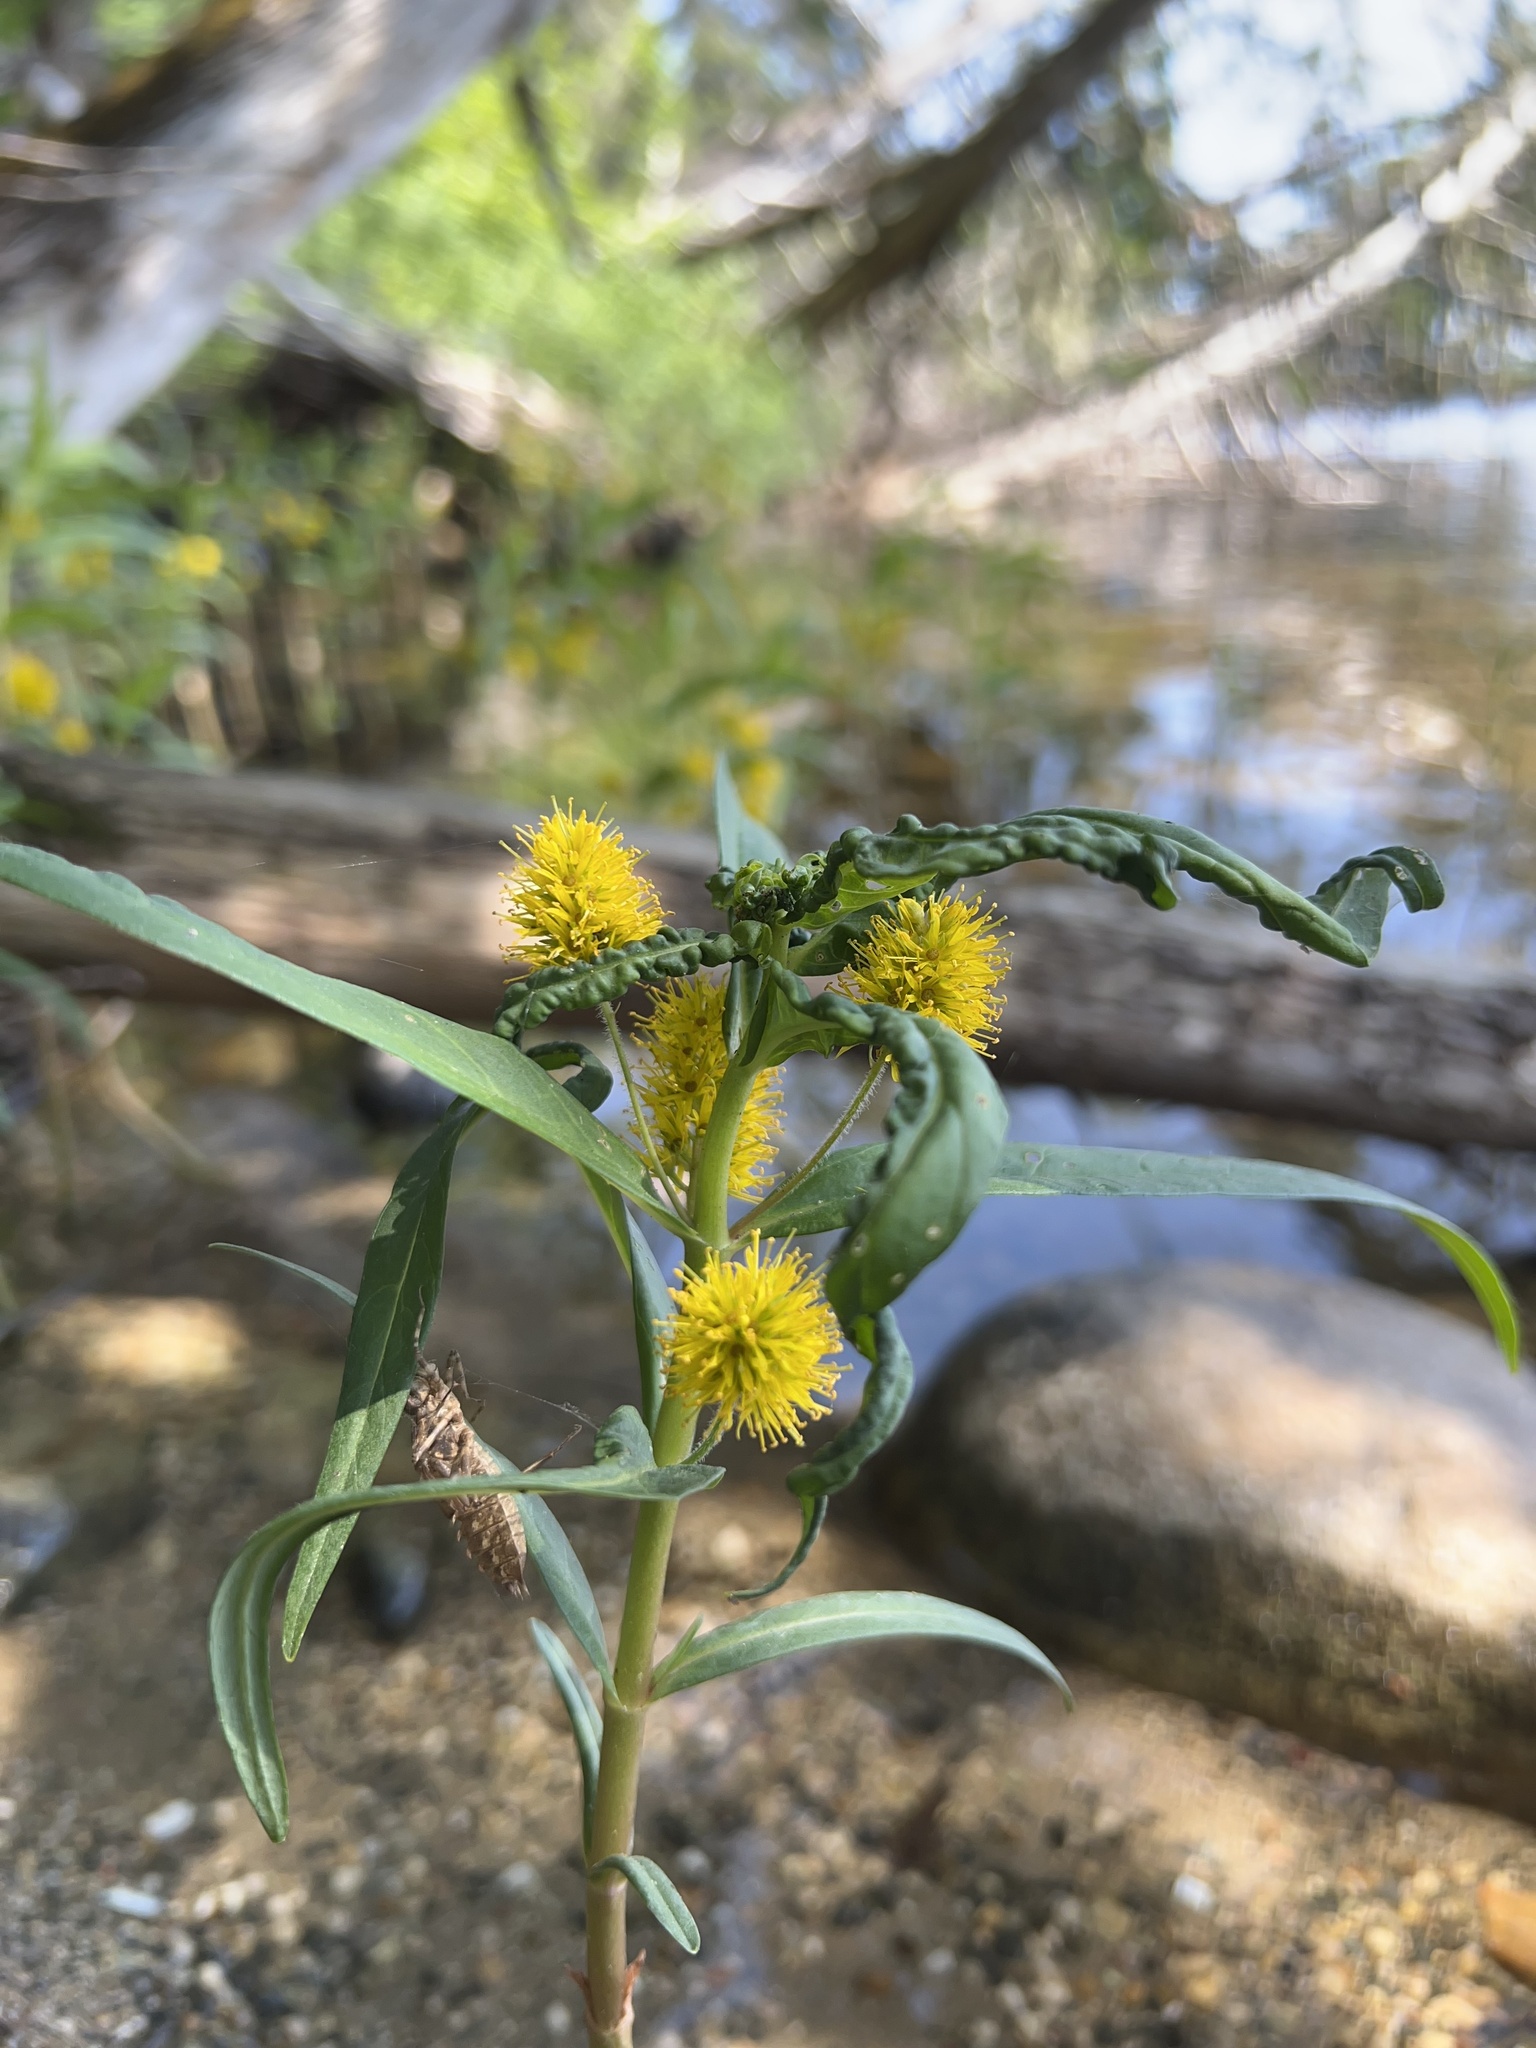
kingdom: Plantae
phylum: Tracheophyta
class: Magnoliopsida
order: Ericales
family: Primulaceae
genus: Lysimachia
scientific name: Lysimachia thyrsiflora
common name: Tufted loosestrife
